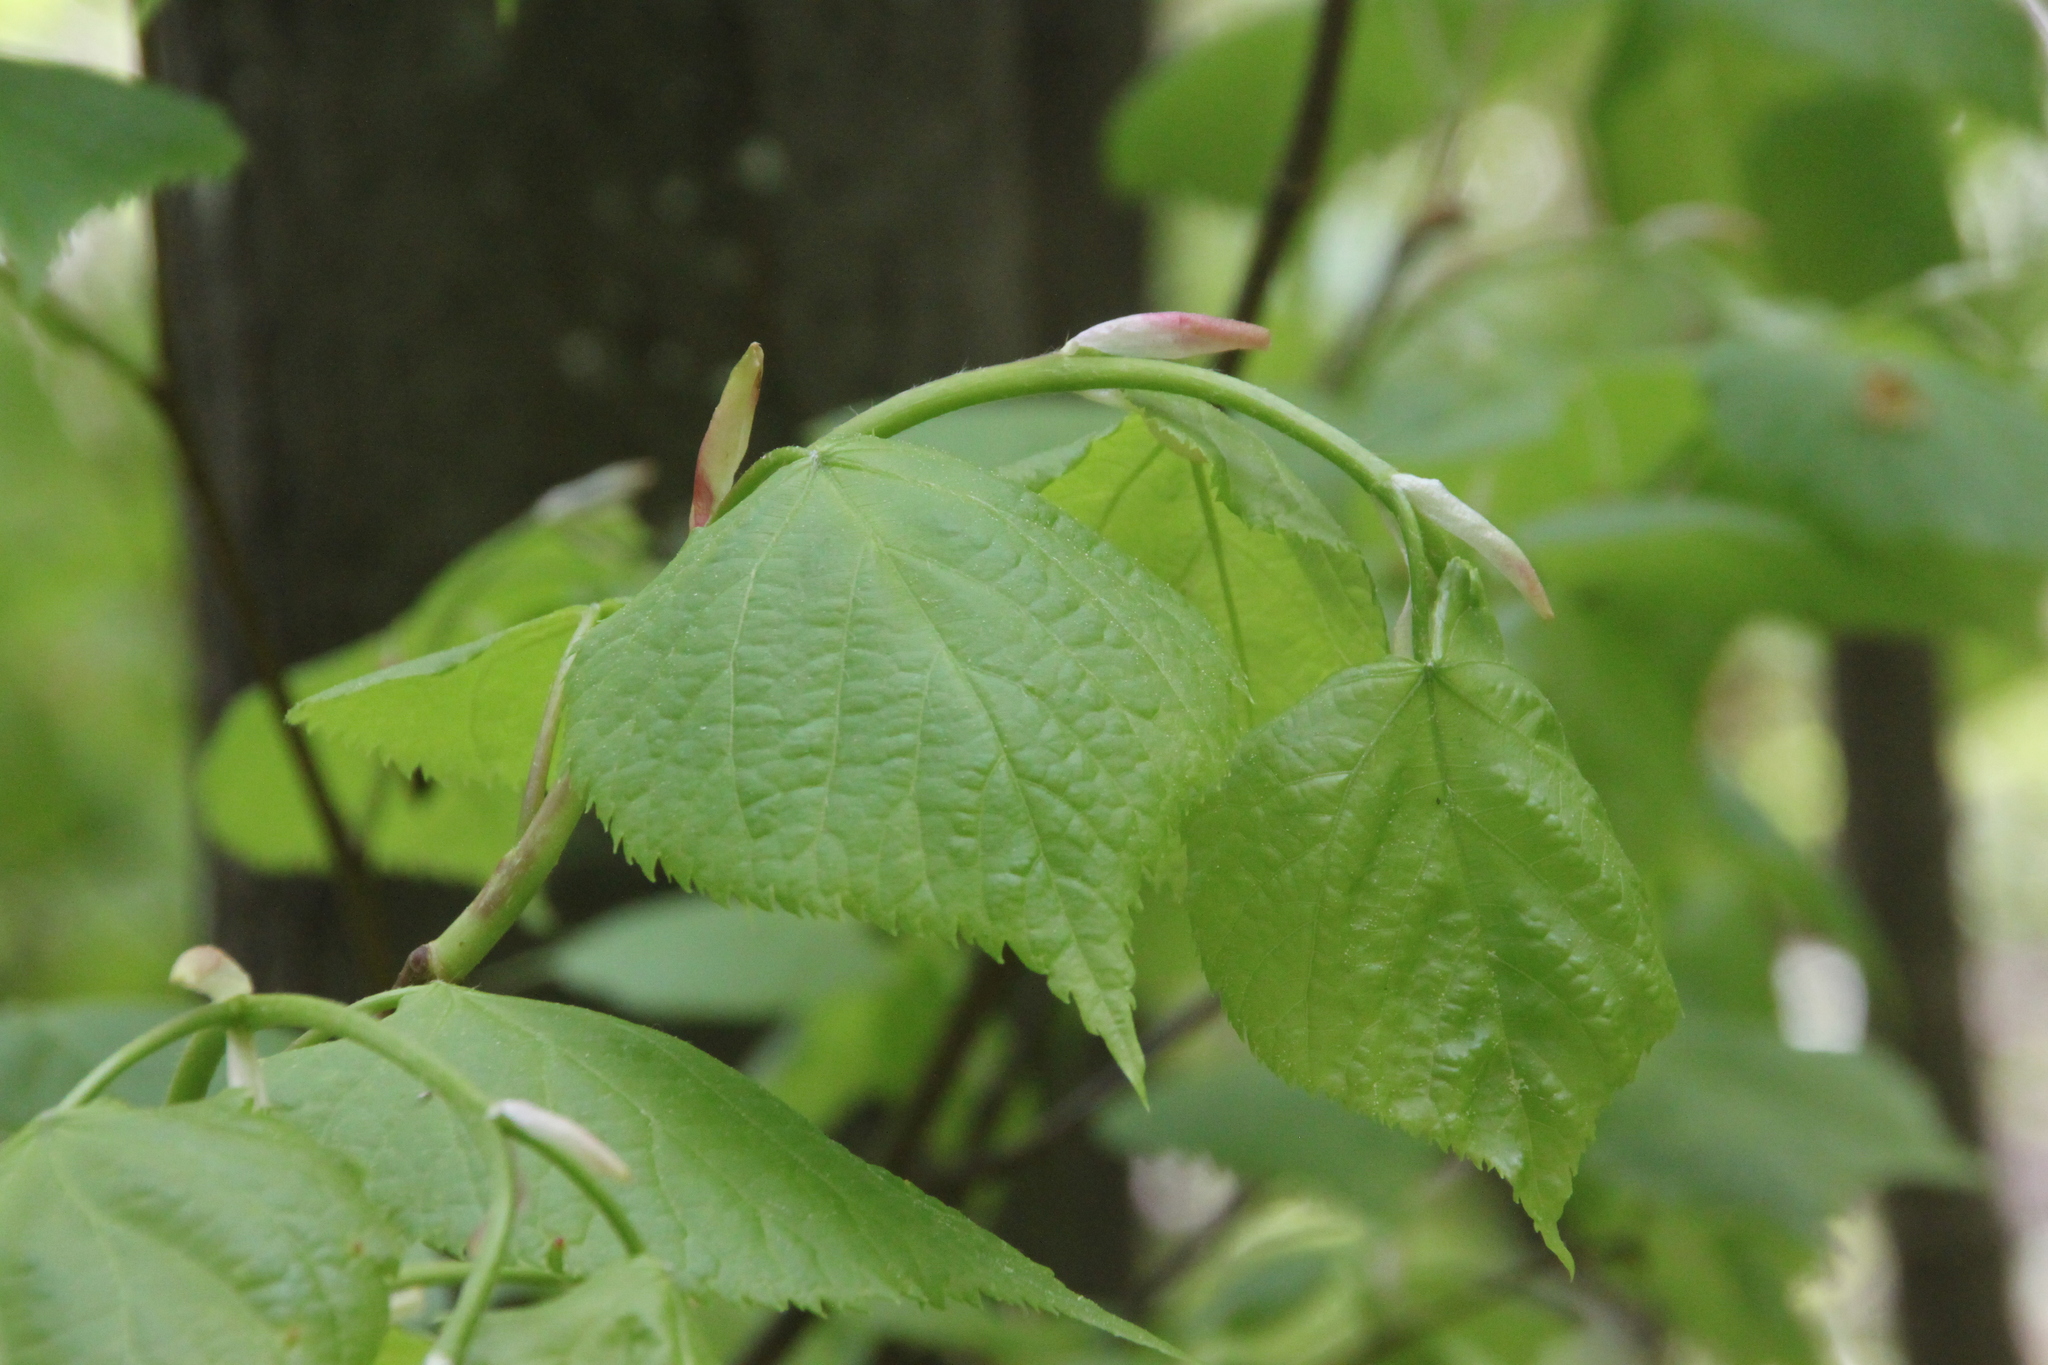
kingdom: Plantae
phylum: Tracheophyta
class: Magnoliopsida
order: Malvales
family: Malvaceae
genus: Tilia
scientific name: Tilia cordata
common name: Small-leaved lime
